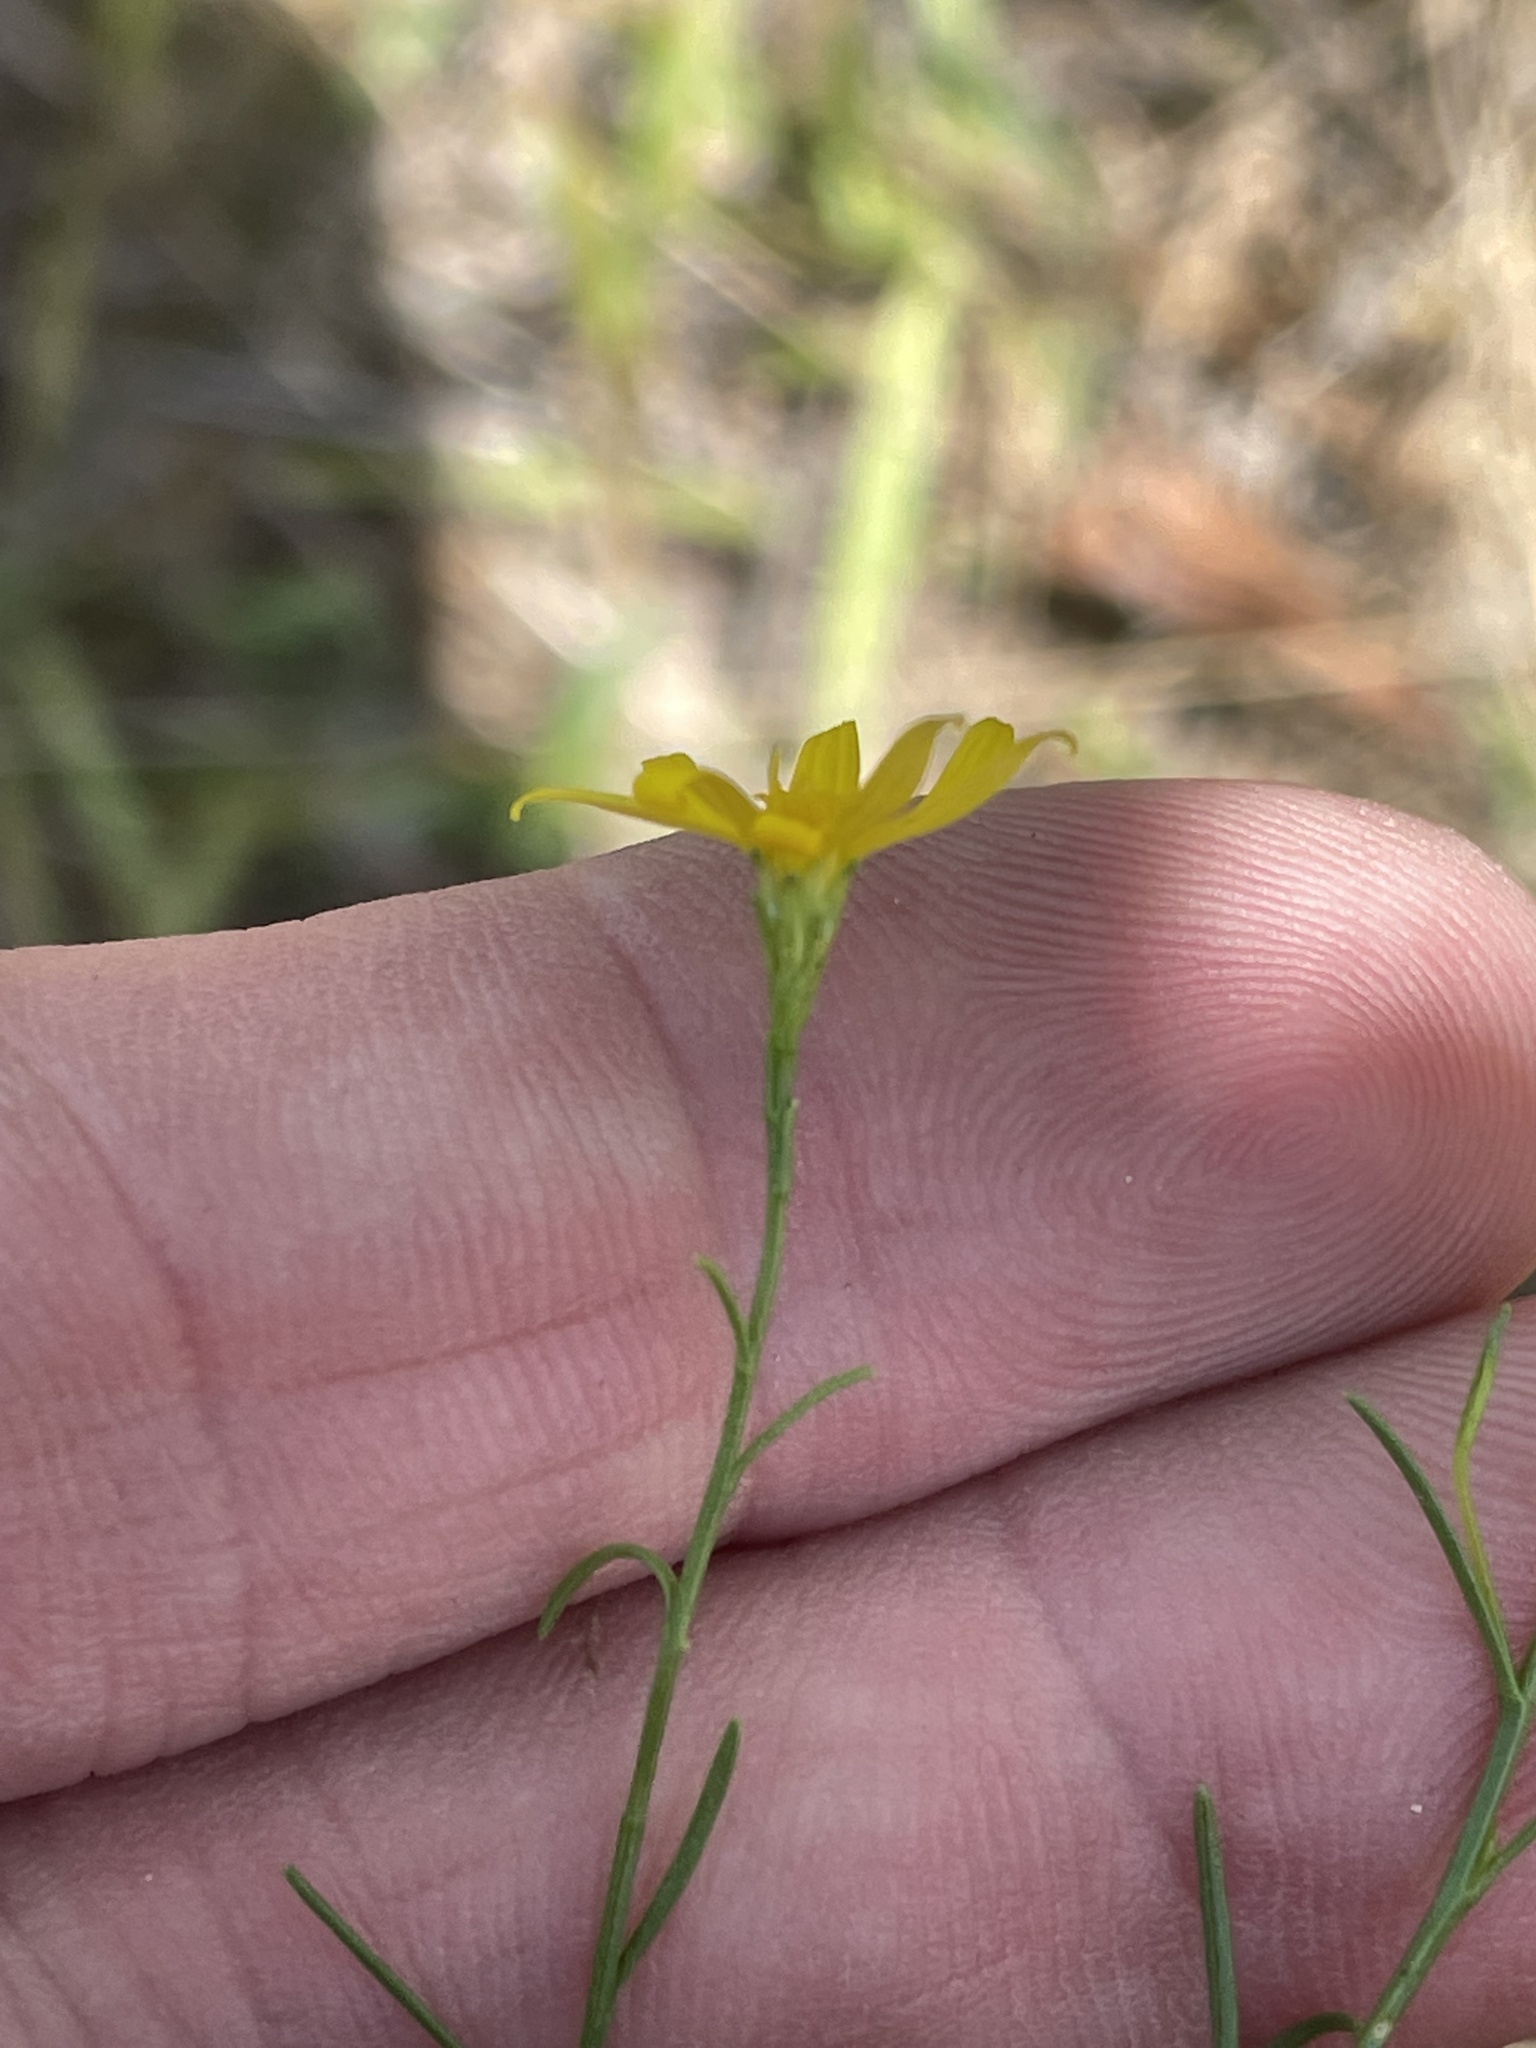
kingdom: Plantae
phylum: Tracheophyta
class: Magnoliopsida
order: Asterales
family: Asteraceae
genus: Gutierrezia
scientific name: Gutierrezia texana
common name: Texas snakeweed
